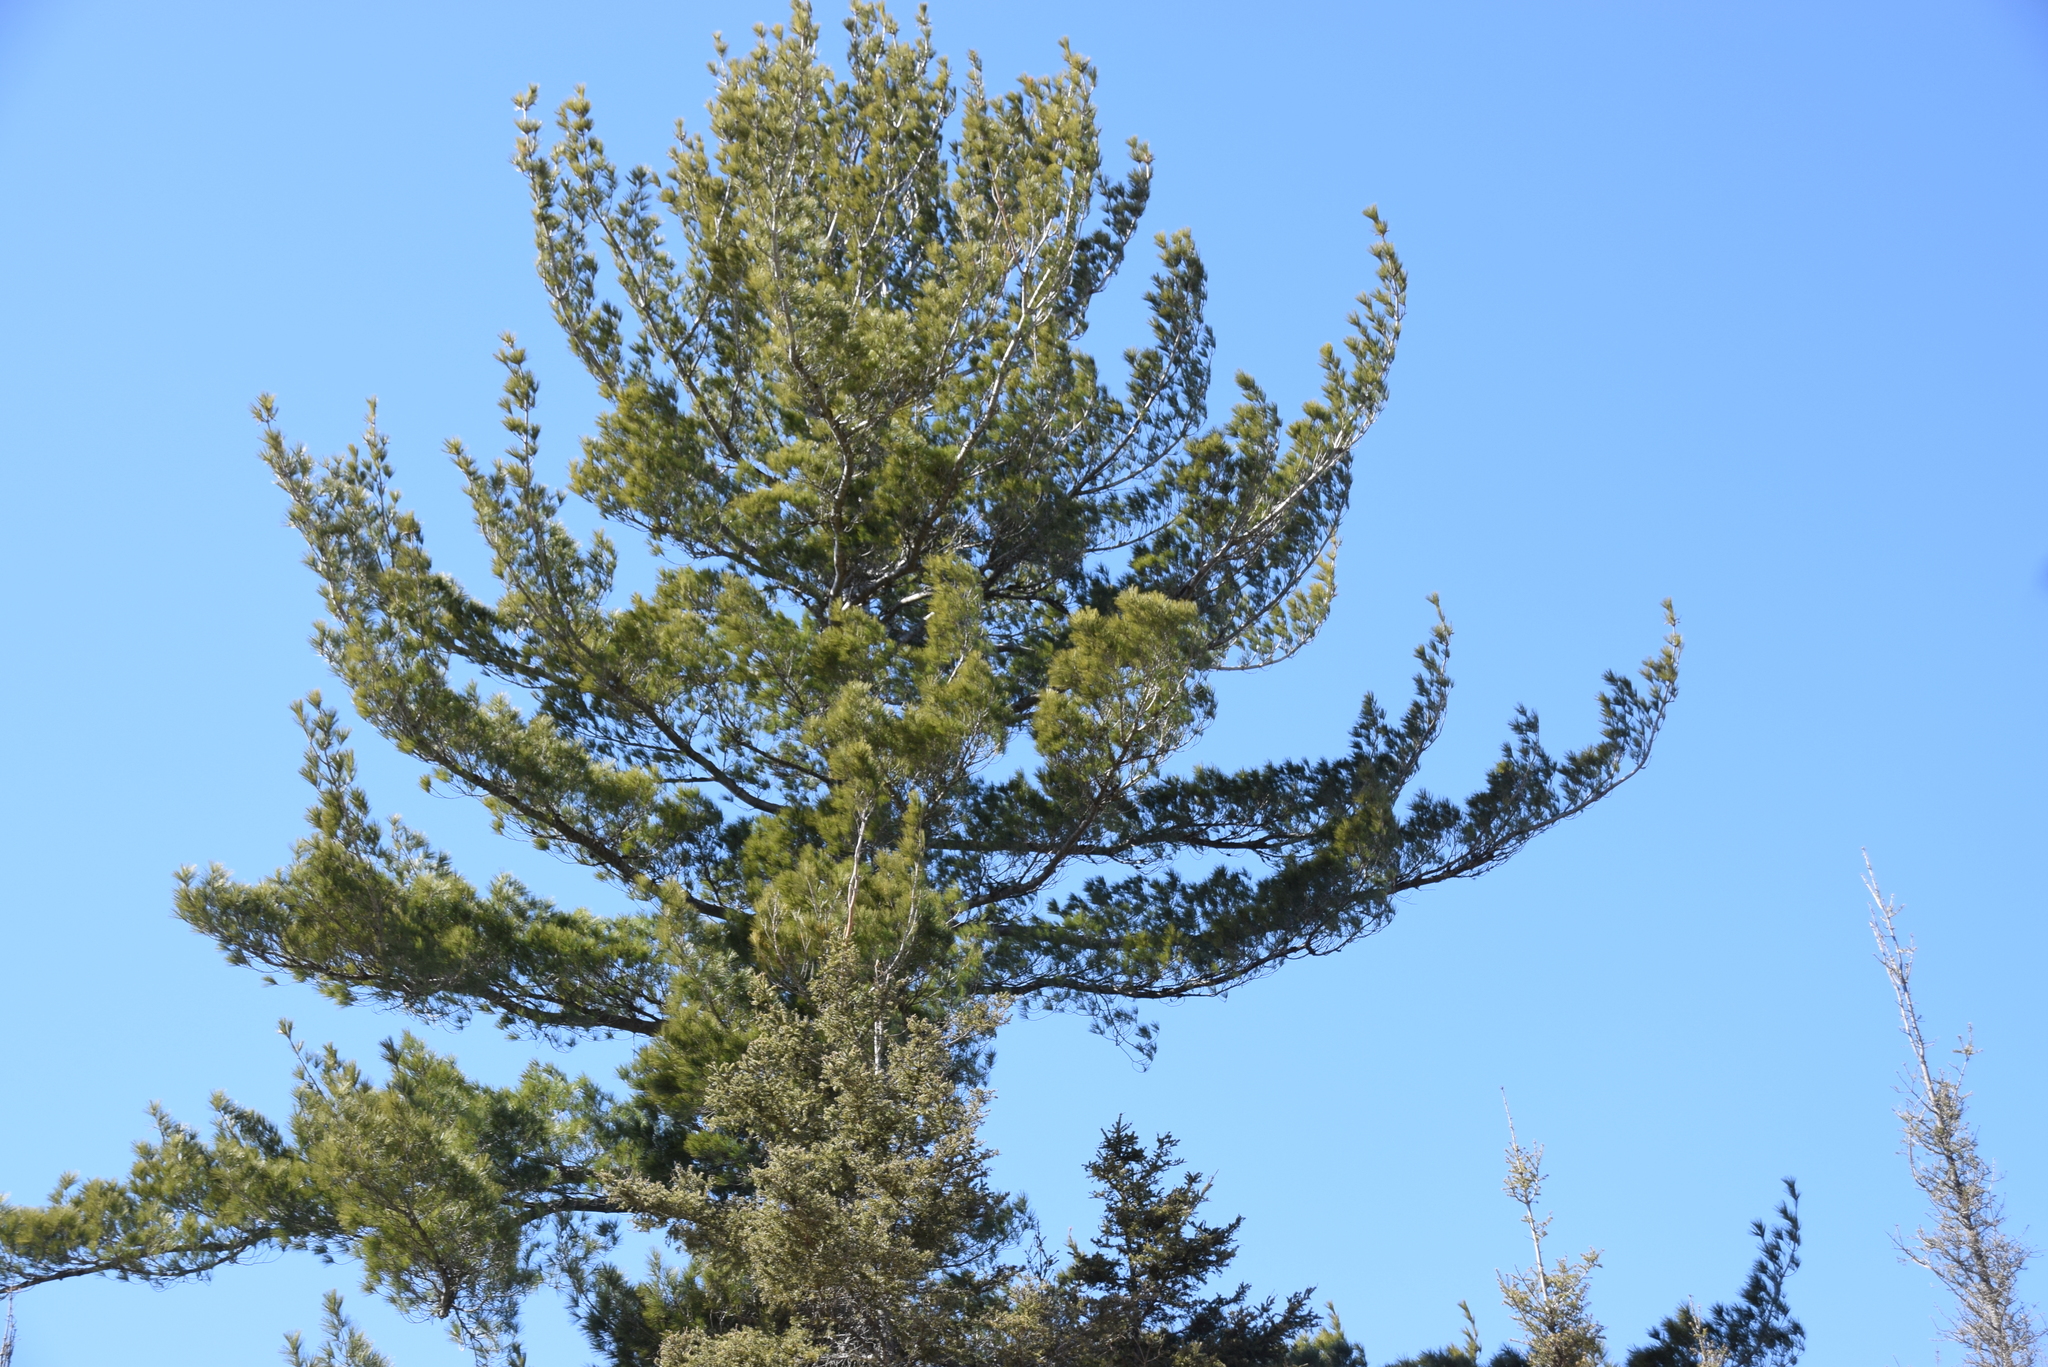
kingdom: Plantae
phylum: Tracheophyta
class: Pinopsida
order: Pinales
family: Pinaceae
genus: Pinus
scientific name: Pinus strobus
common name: Weymouth pine
